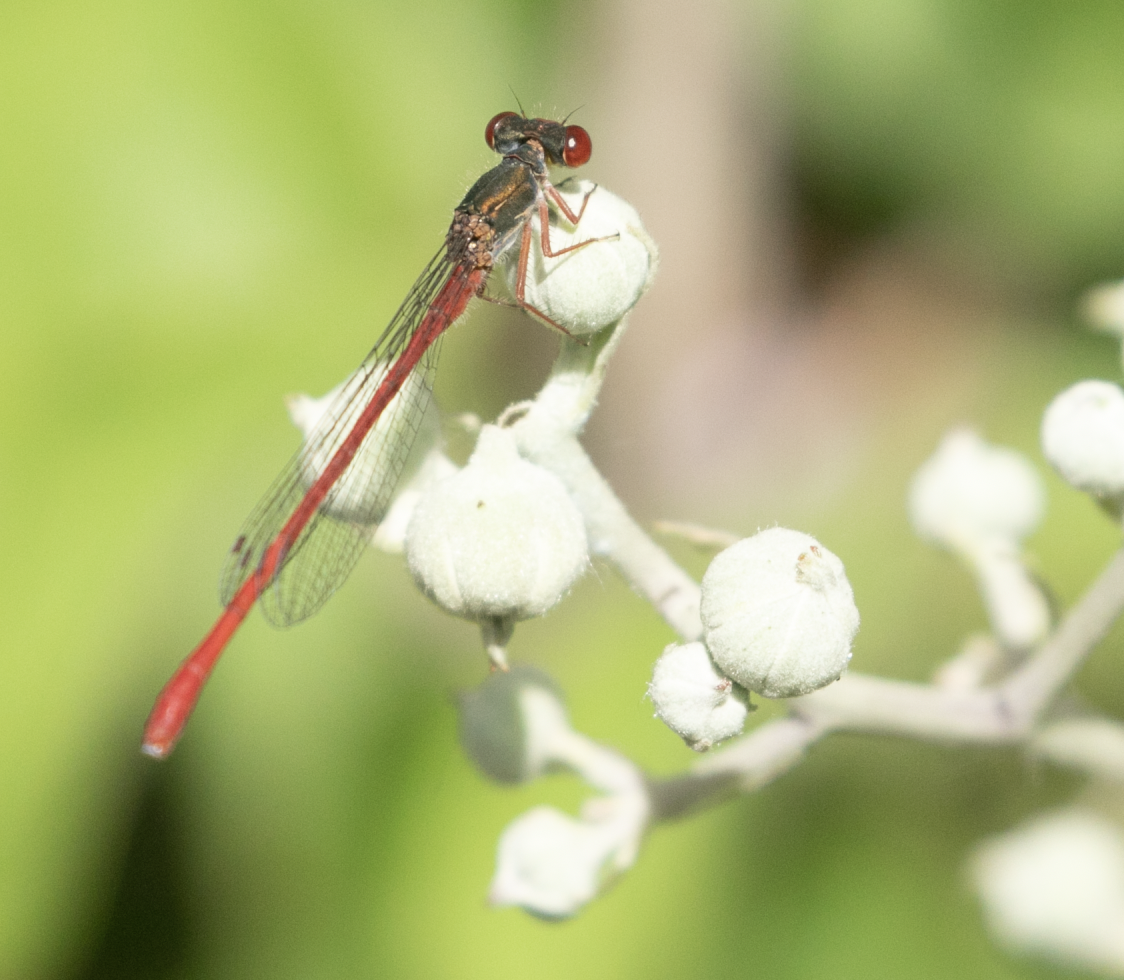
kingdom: Animalia
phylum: Arthropoda
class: Insecta
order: Odonata
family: Coenagrionidae
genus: Ceriagrion
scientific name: Ceriagrion tenellum
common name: Small red damselfly
